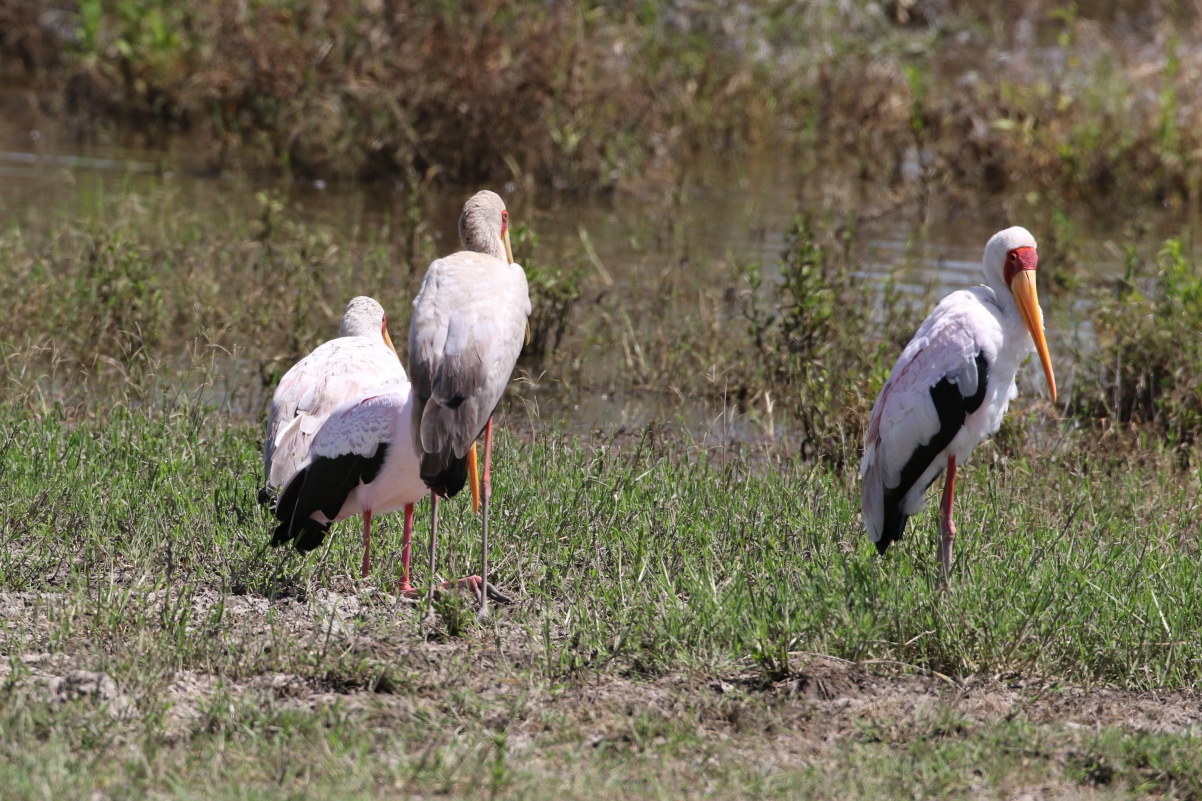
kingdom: Animalia
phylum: Chordata
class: Aves
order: Ciconiiformes
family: Ciconiidae
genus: Mycteria
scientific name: Mycteria ibis
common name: Yellow-billed stork
